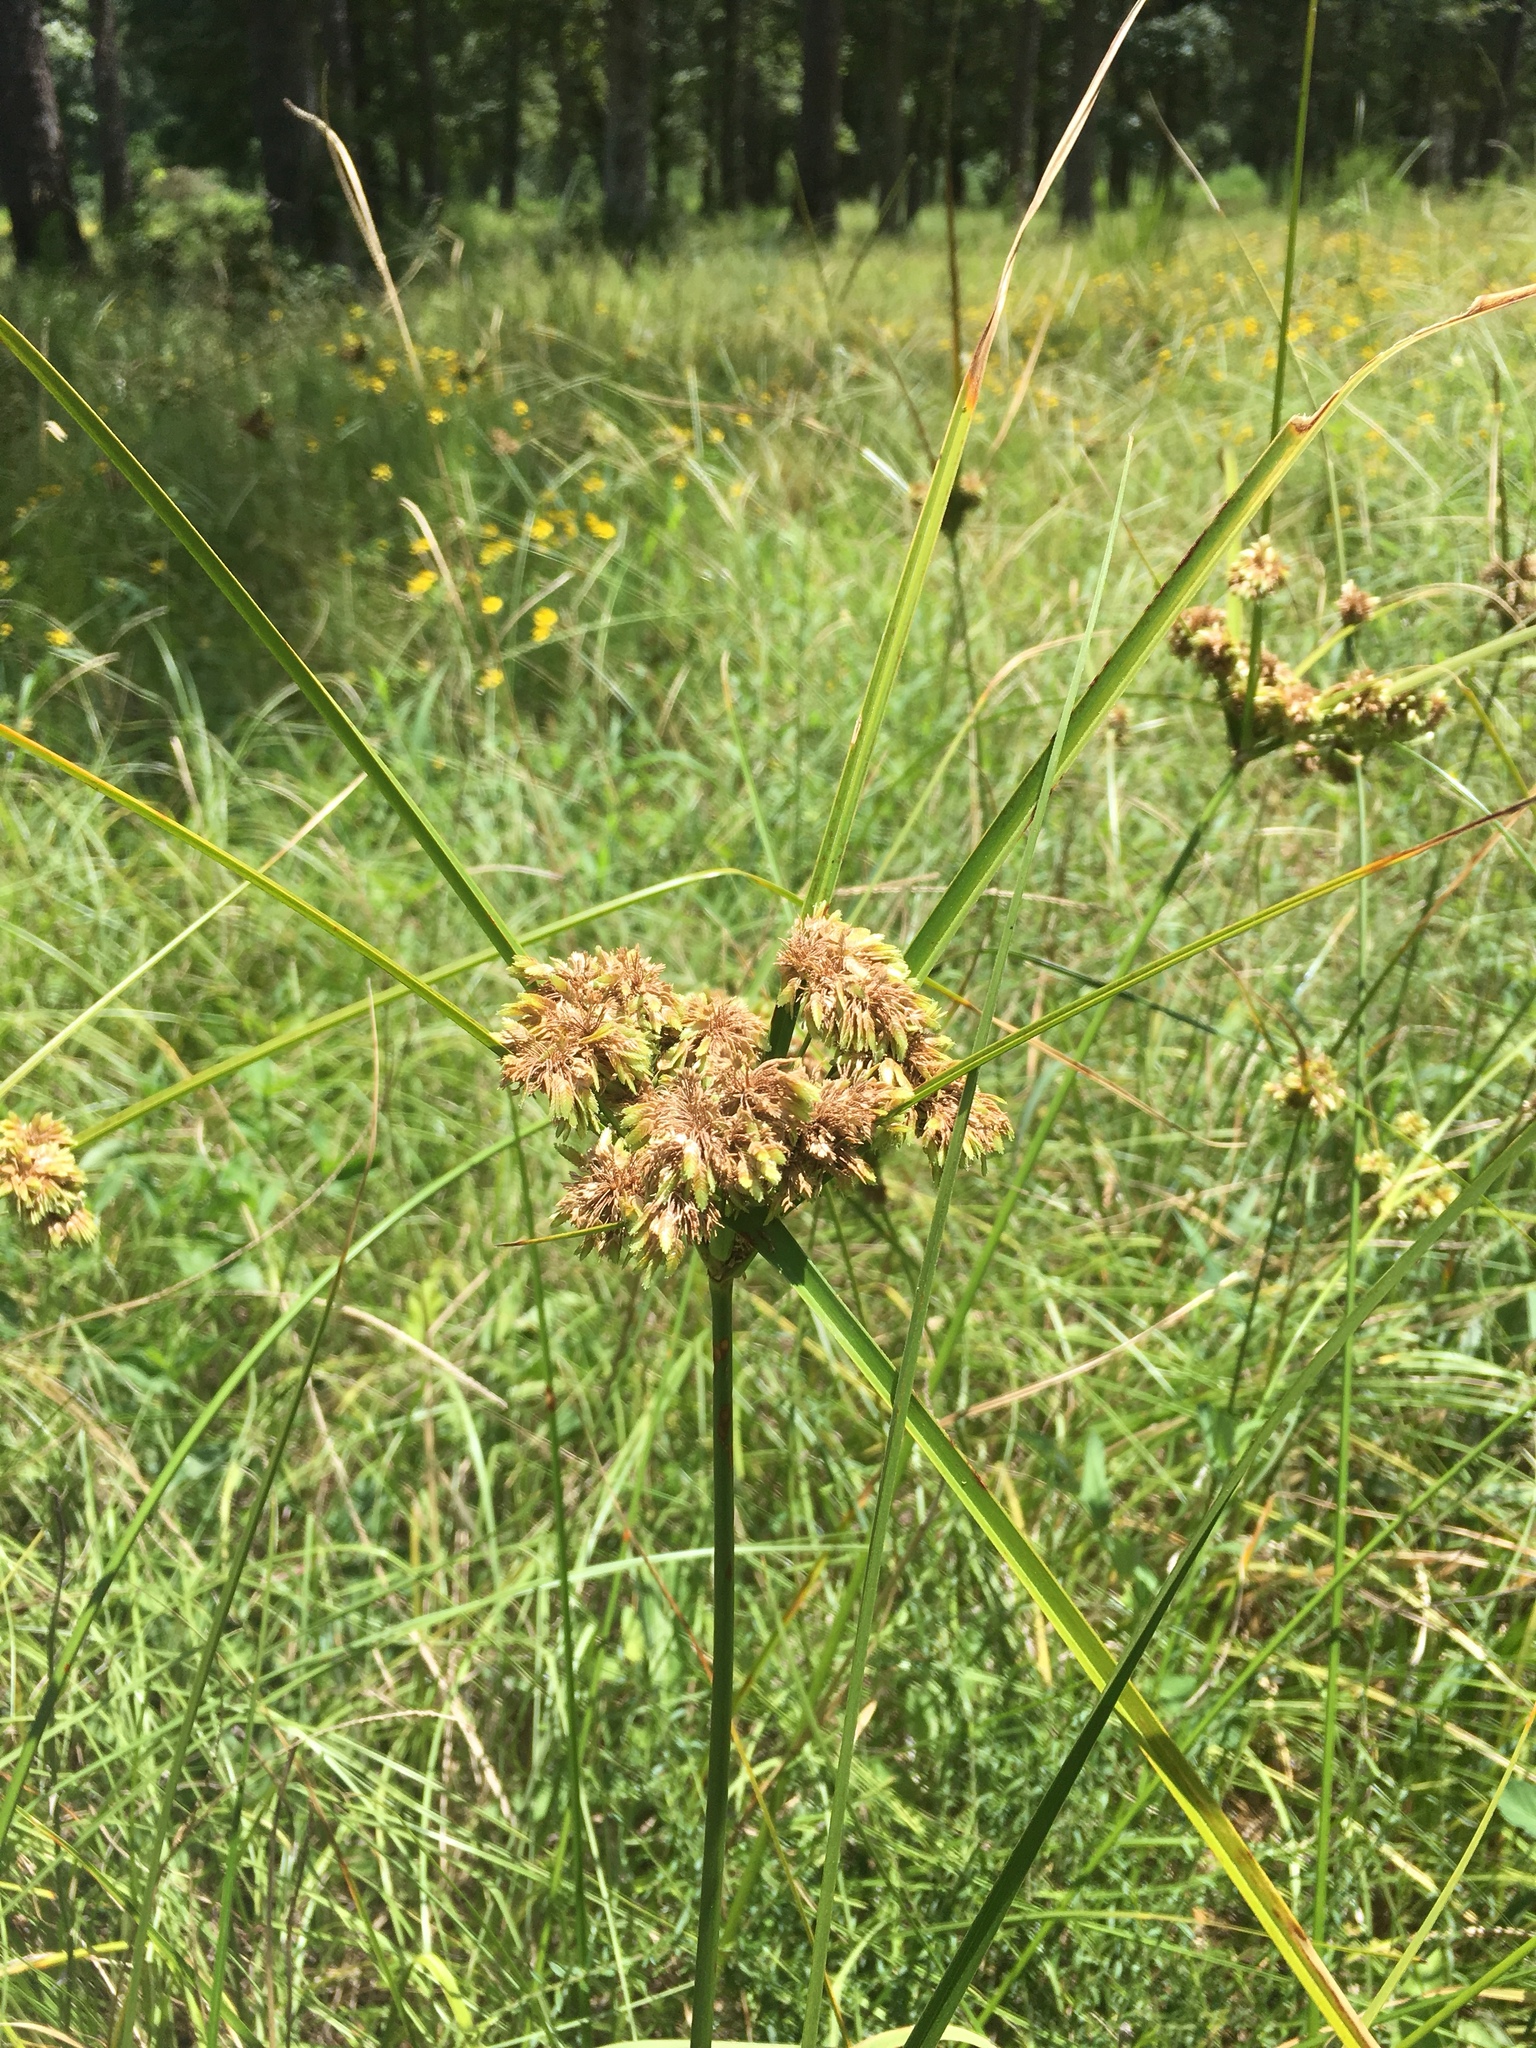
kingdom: Plantae
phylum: Tracheophyta
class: Liliopsida
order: Poales
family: Cyperaceae
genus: Cyperus
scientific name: Cyperus entrerianus
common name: Woodrush flatsedge
